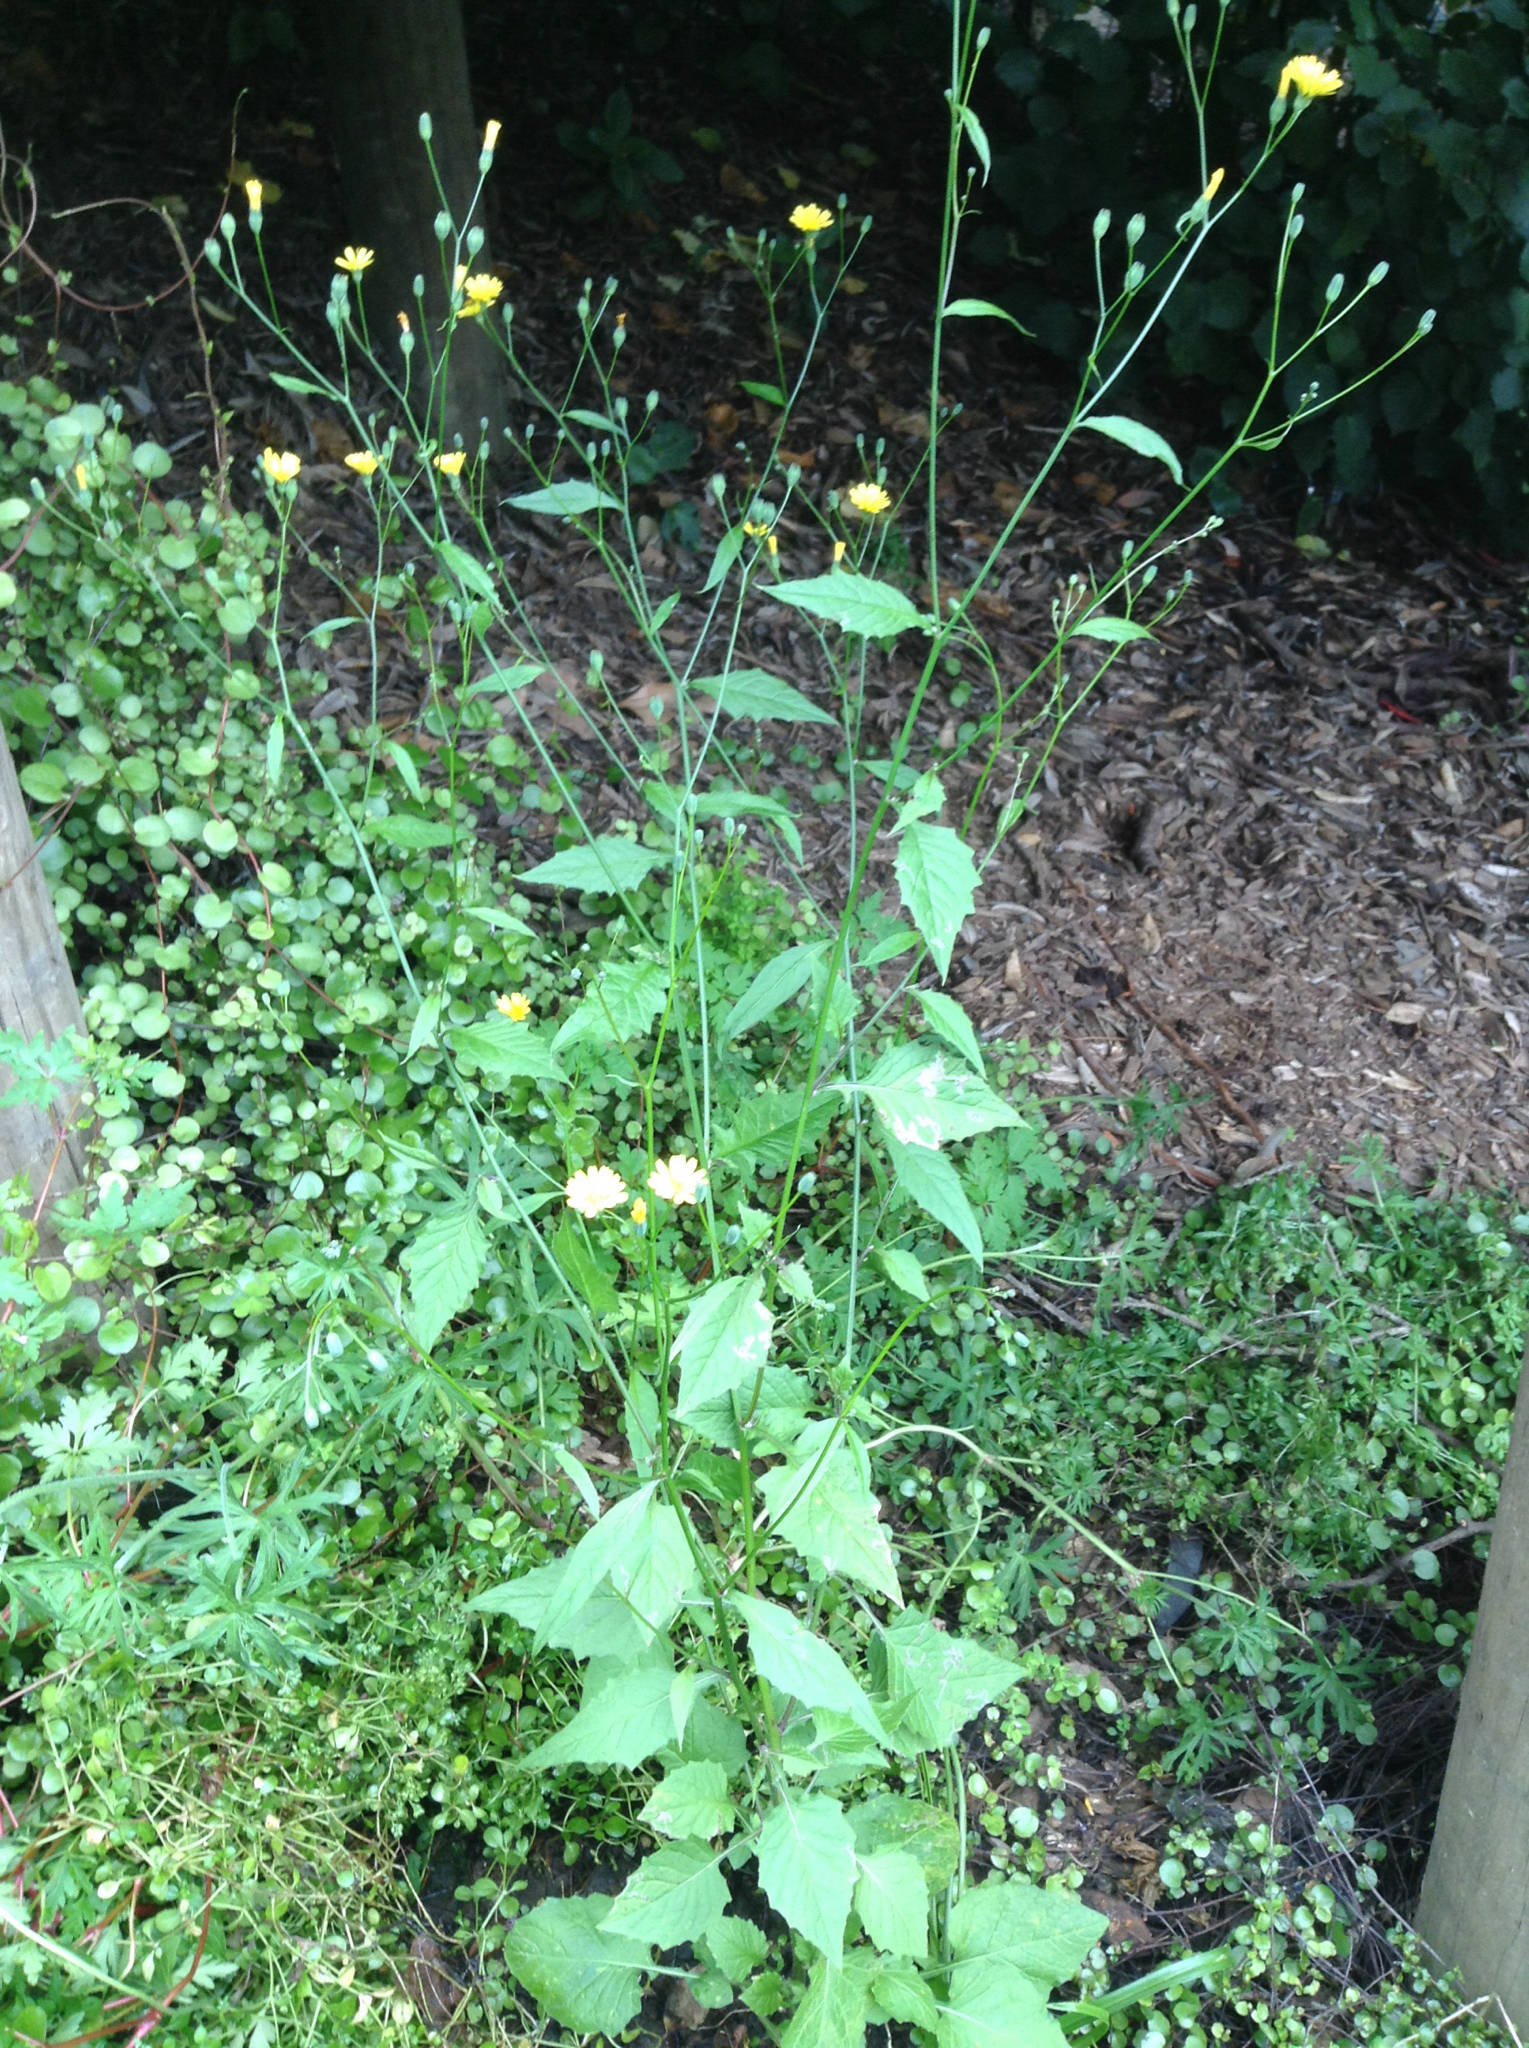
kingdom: Plantae
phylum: Tracheophyta
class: Magnoliopsida
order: Asterales
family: Asteraceae
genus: Lapsana
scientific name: Lapsana communis
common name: Nipplewort
